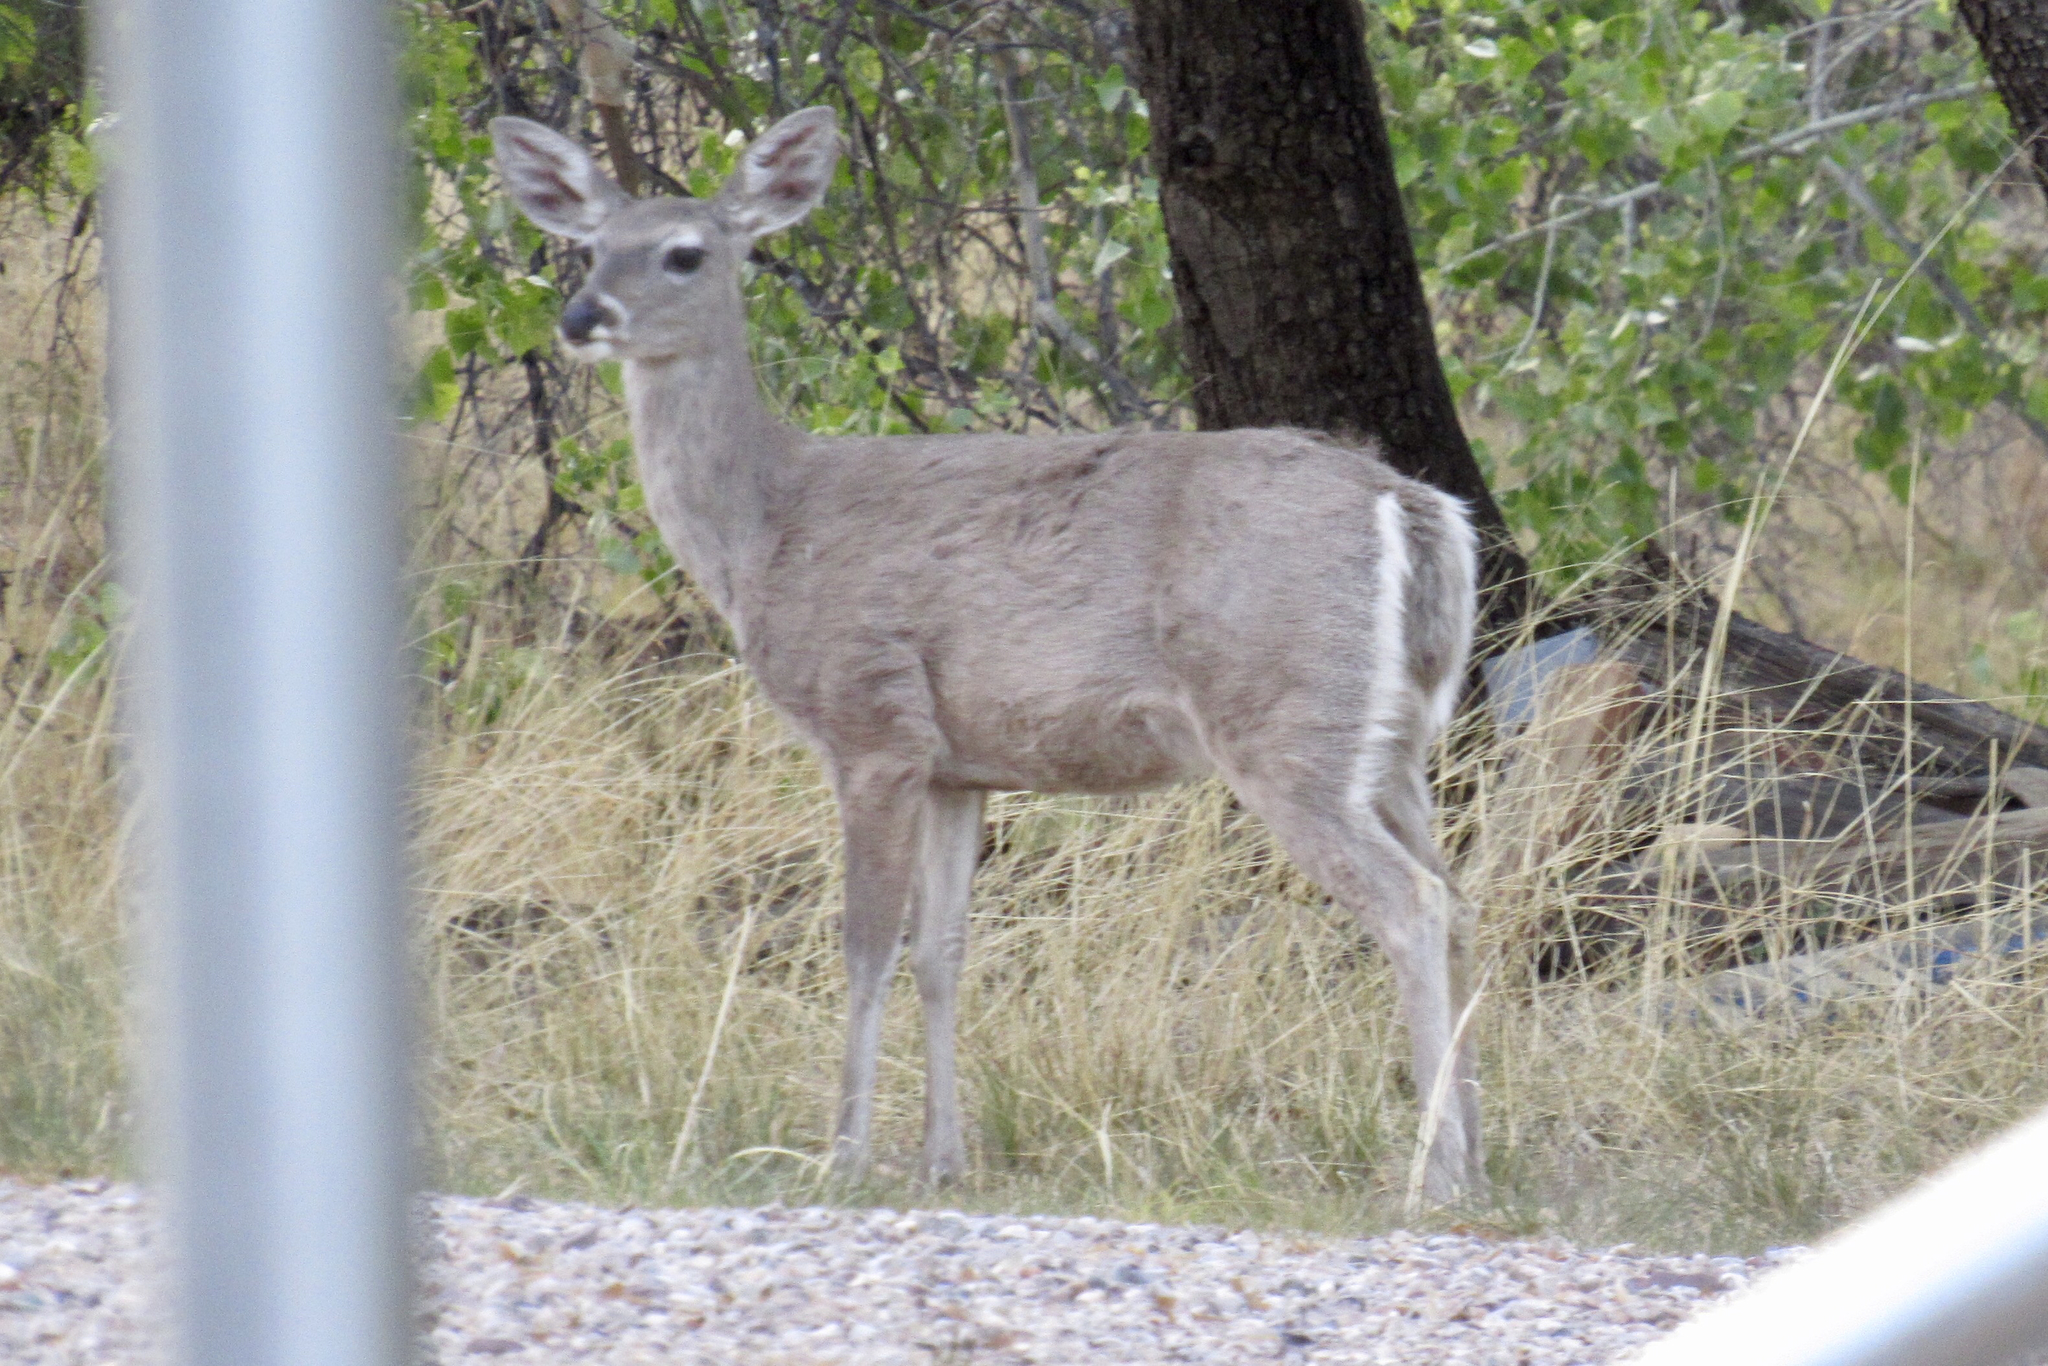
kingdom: Animalia
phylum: Chordata
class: Mammalia
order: Artiodactyla
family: Cervidae
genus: Odocoileus
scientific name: Odocoileus virginianus
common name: White-tailed deer
